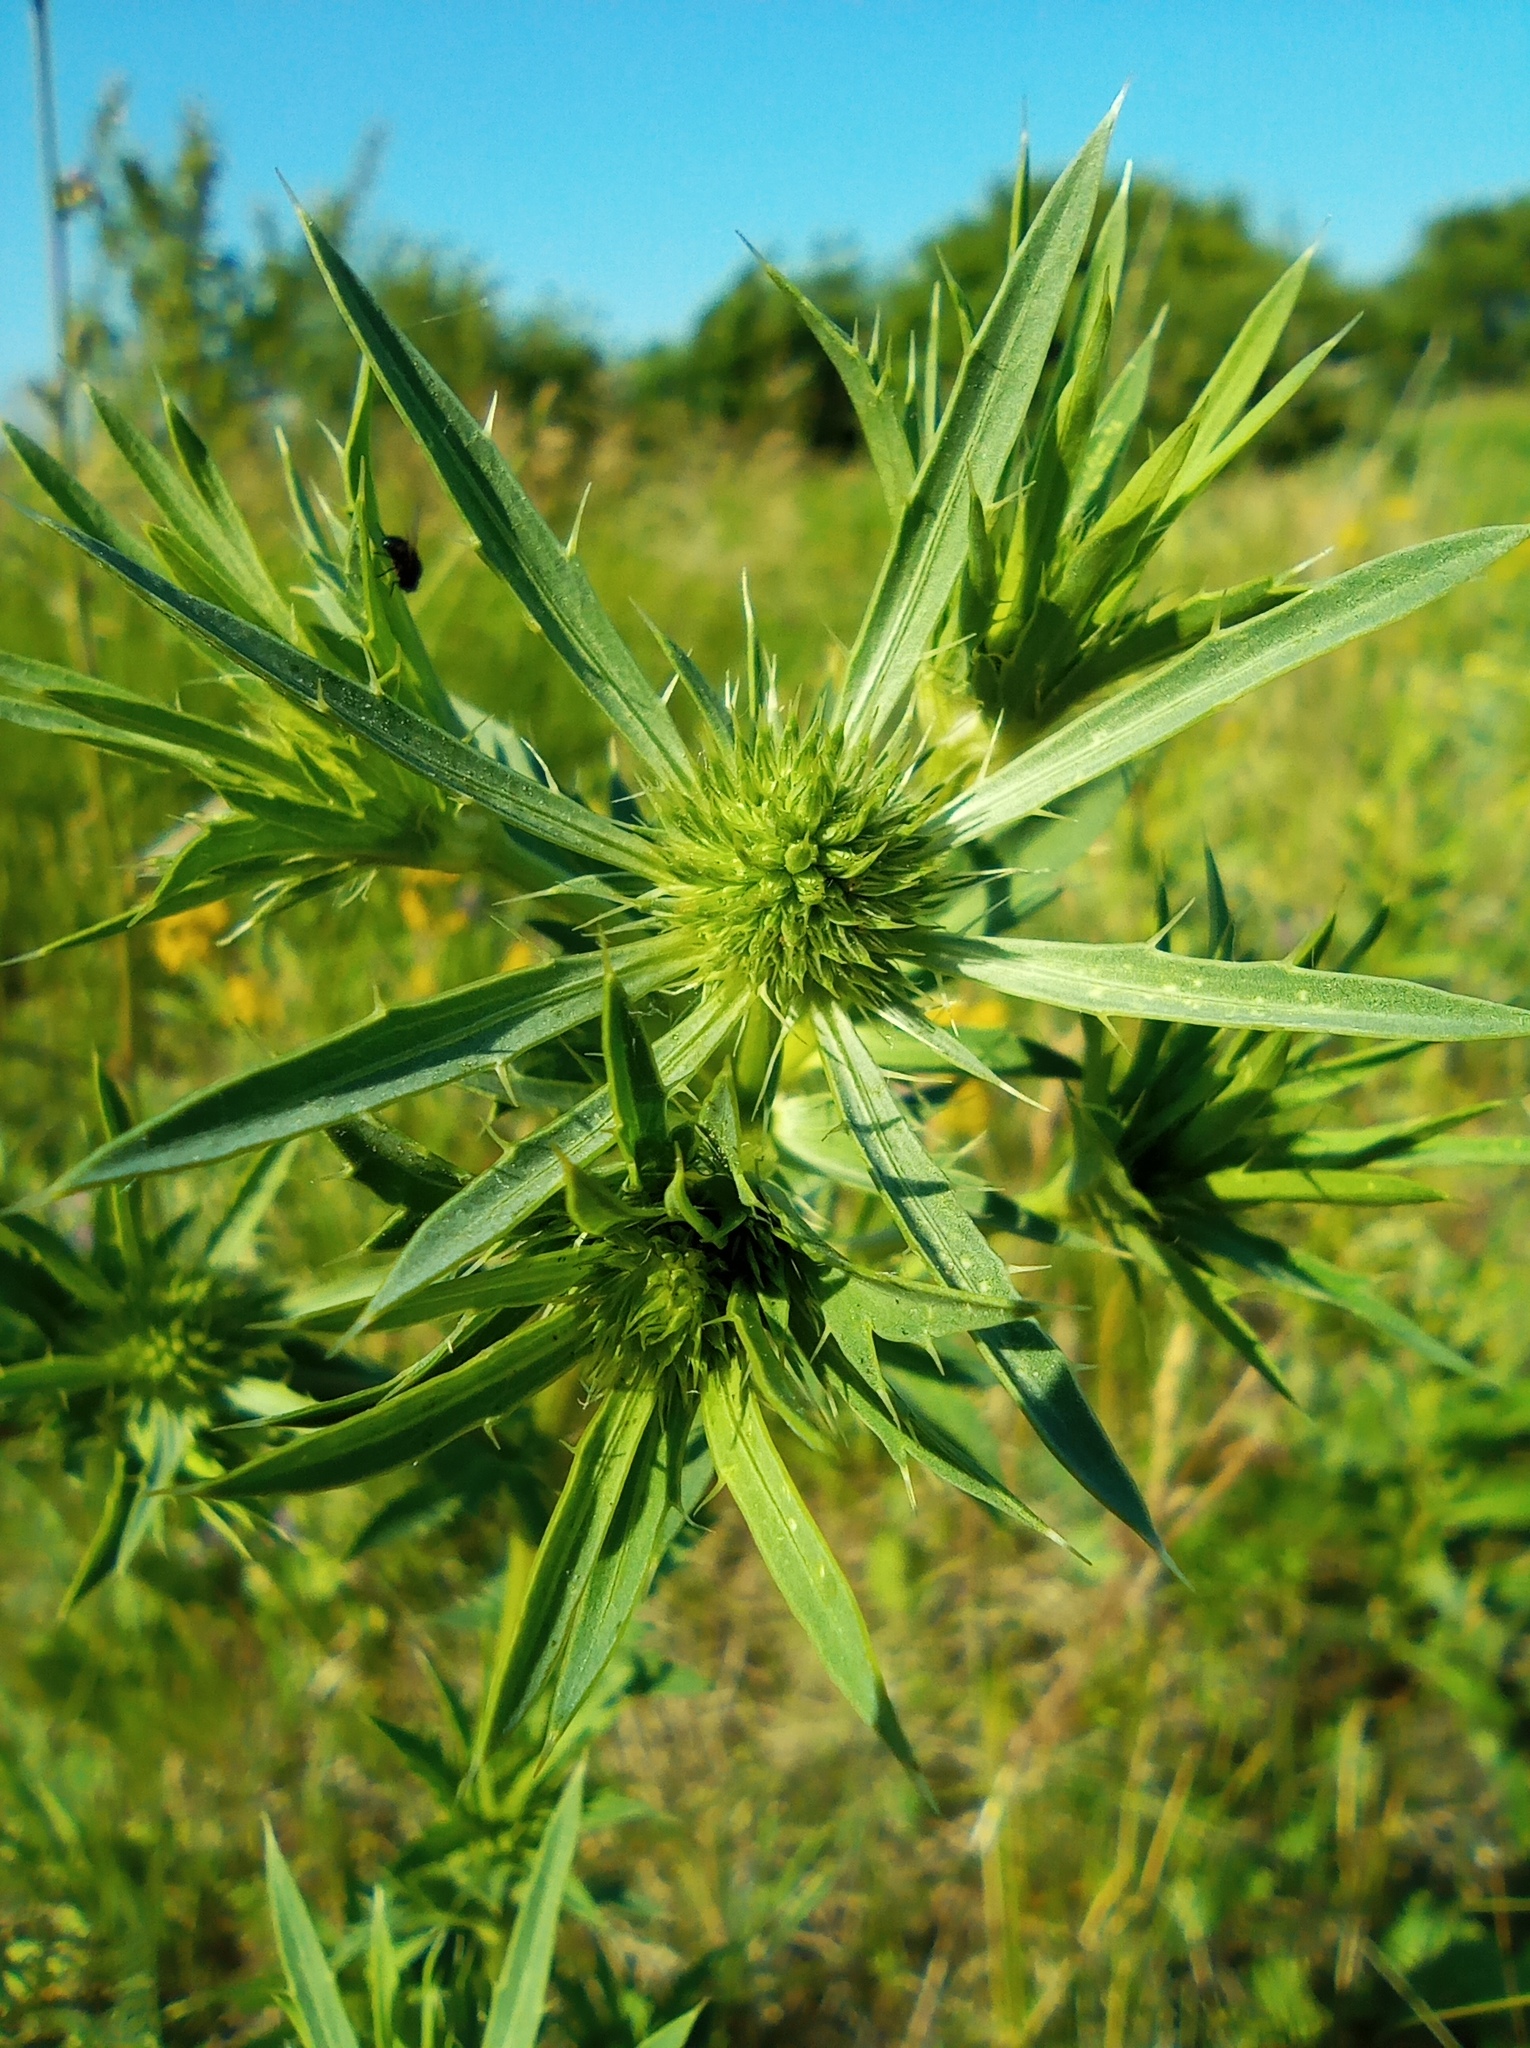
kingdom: Plantae
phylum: Tracheophyta
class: Magnoliopsida
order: Apiales
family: Apiaceae
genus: Eryngium
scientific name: Eryngium planum
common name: Blue eryngo
